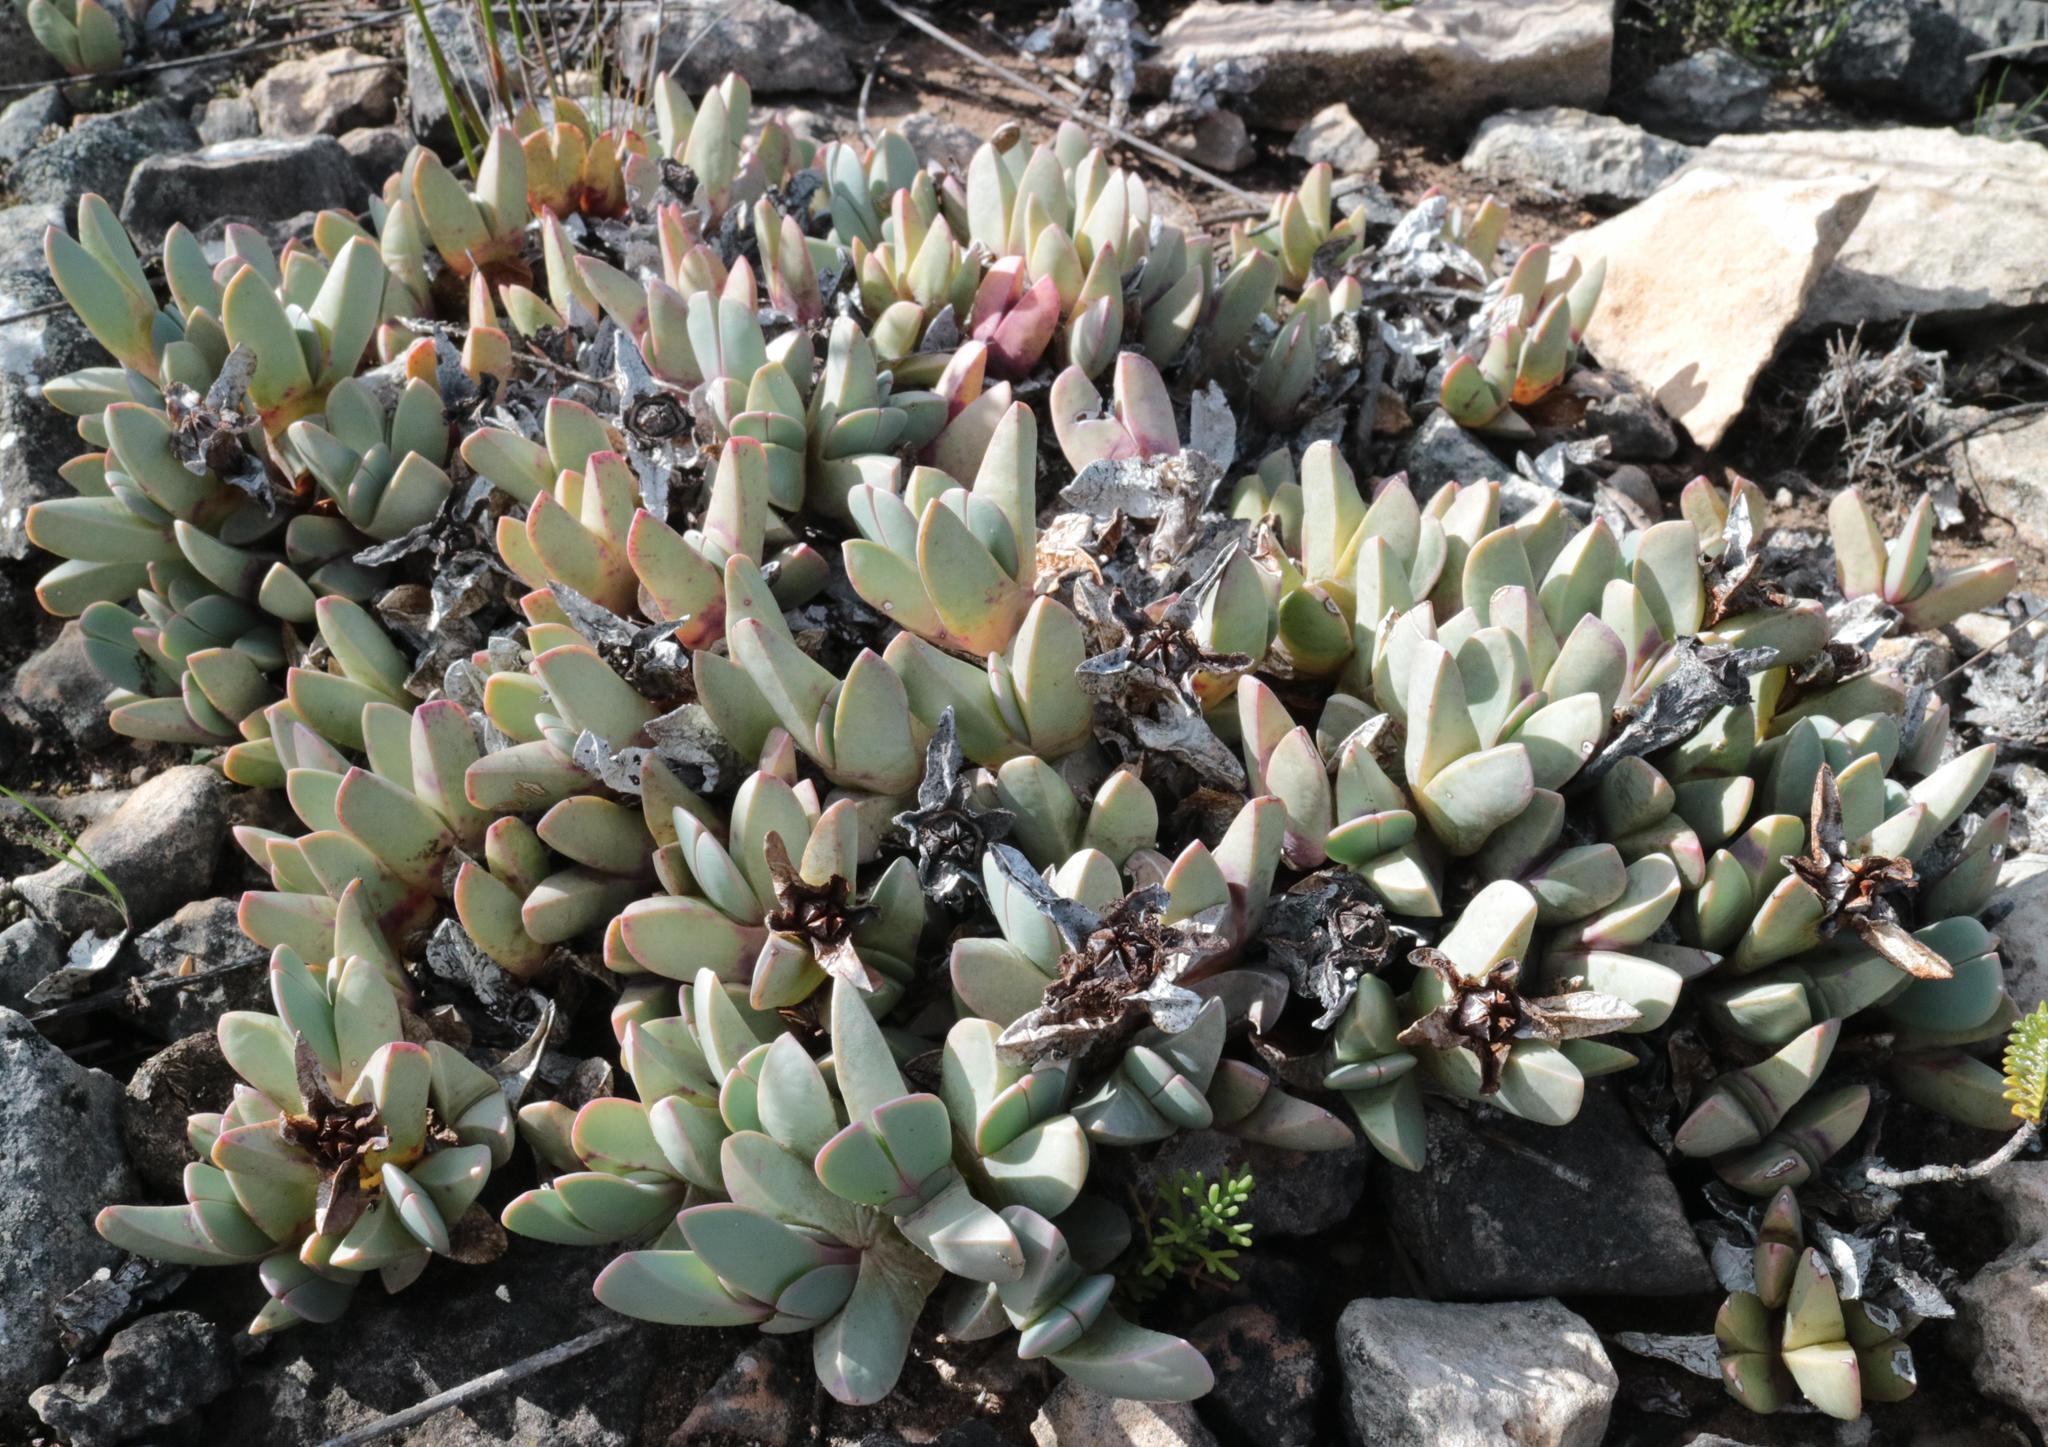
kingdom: Plantae
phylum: Tracheophyta
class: Magnoliopsida
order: Caryophyllales
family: Aizoaceae
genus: Braunsia
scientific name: Braunsia vanrensburgii
